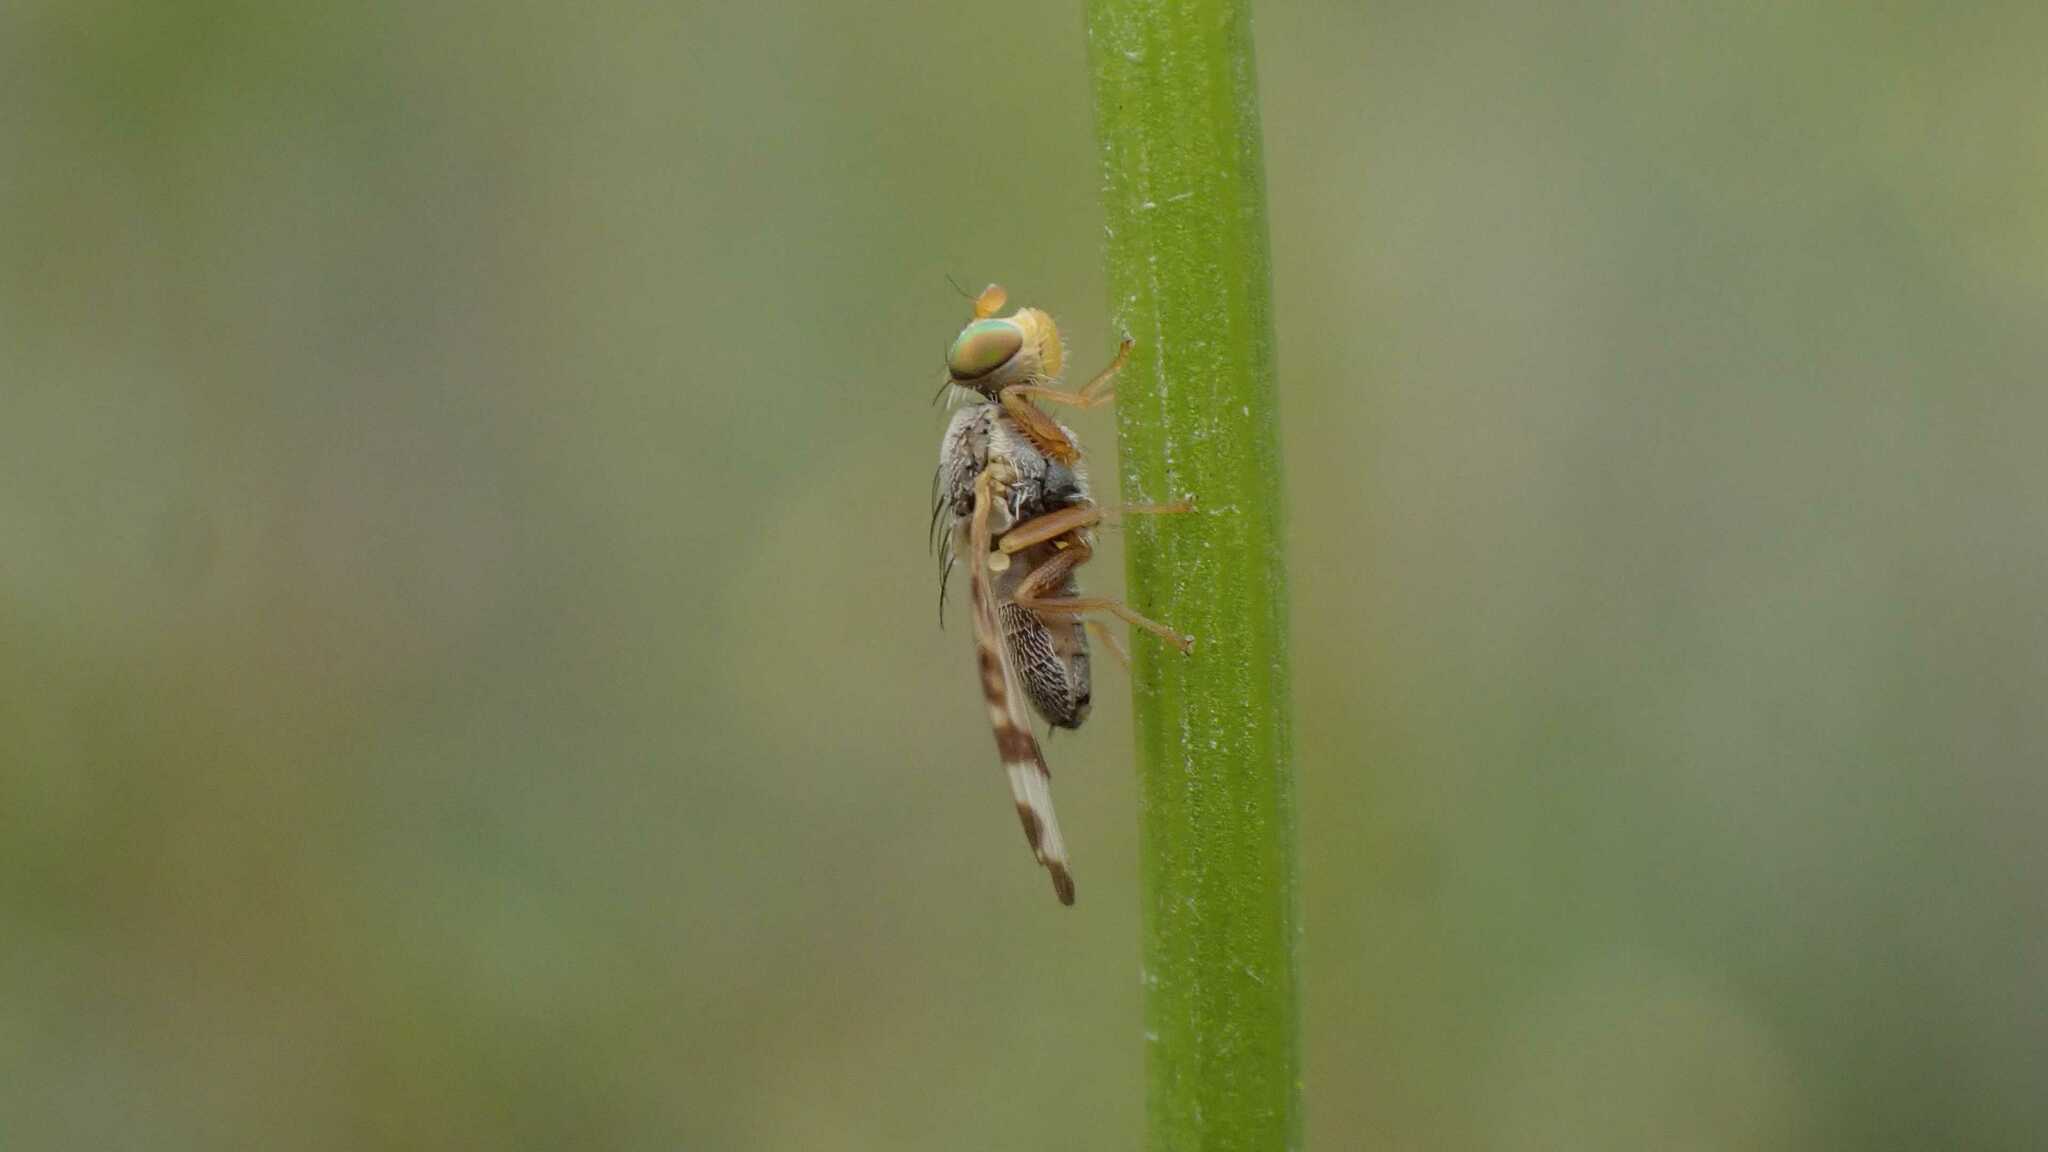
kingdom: Animalia
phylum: Arthropoda
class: Insecta
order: Diptera
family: Tephritidae
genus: Sphenella
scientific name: Sphenella marginata
